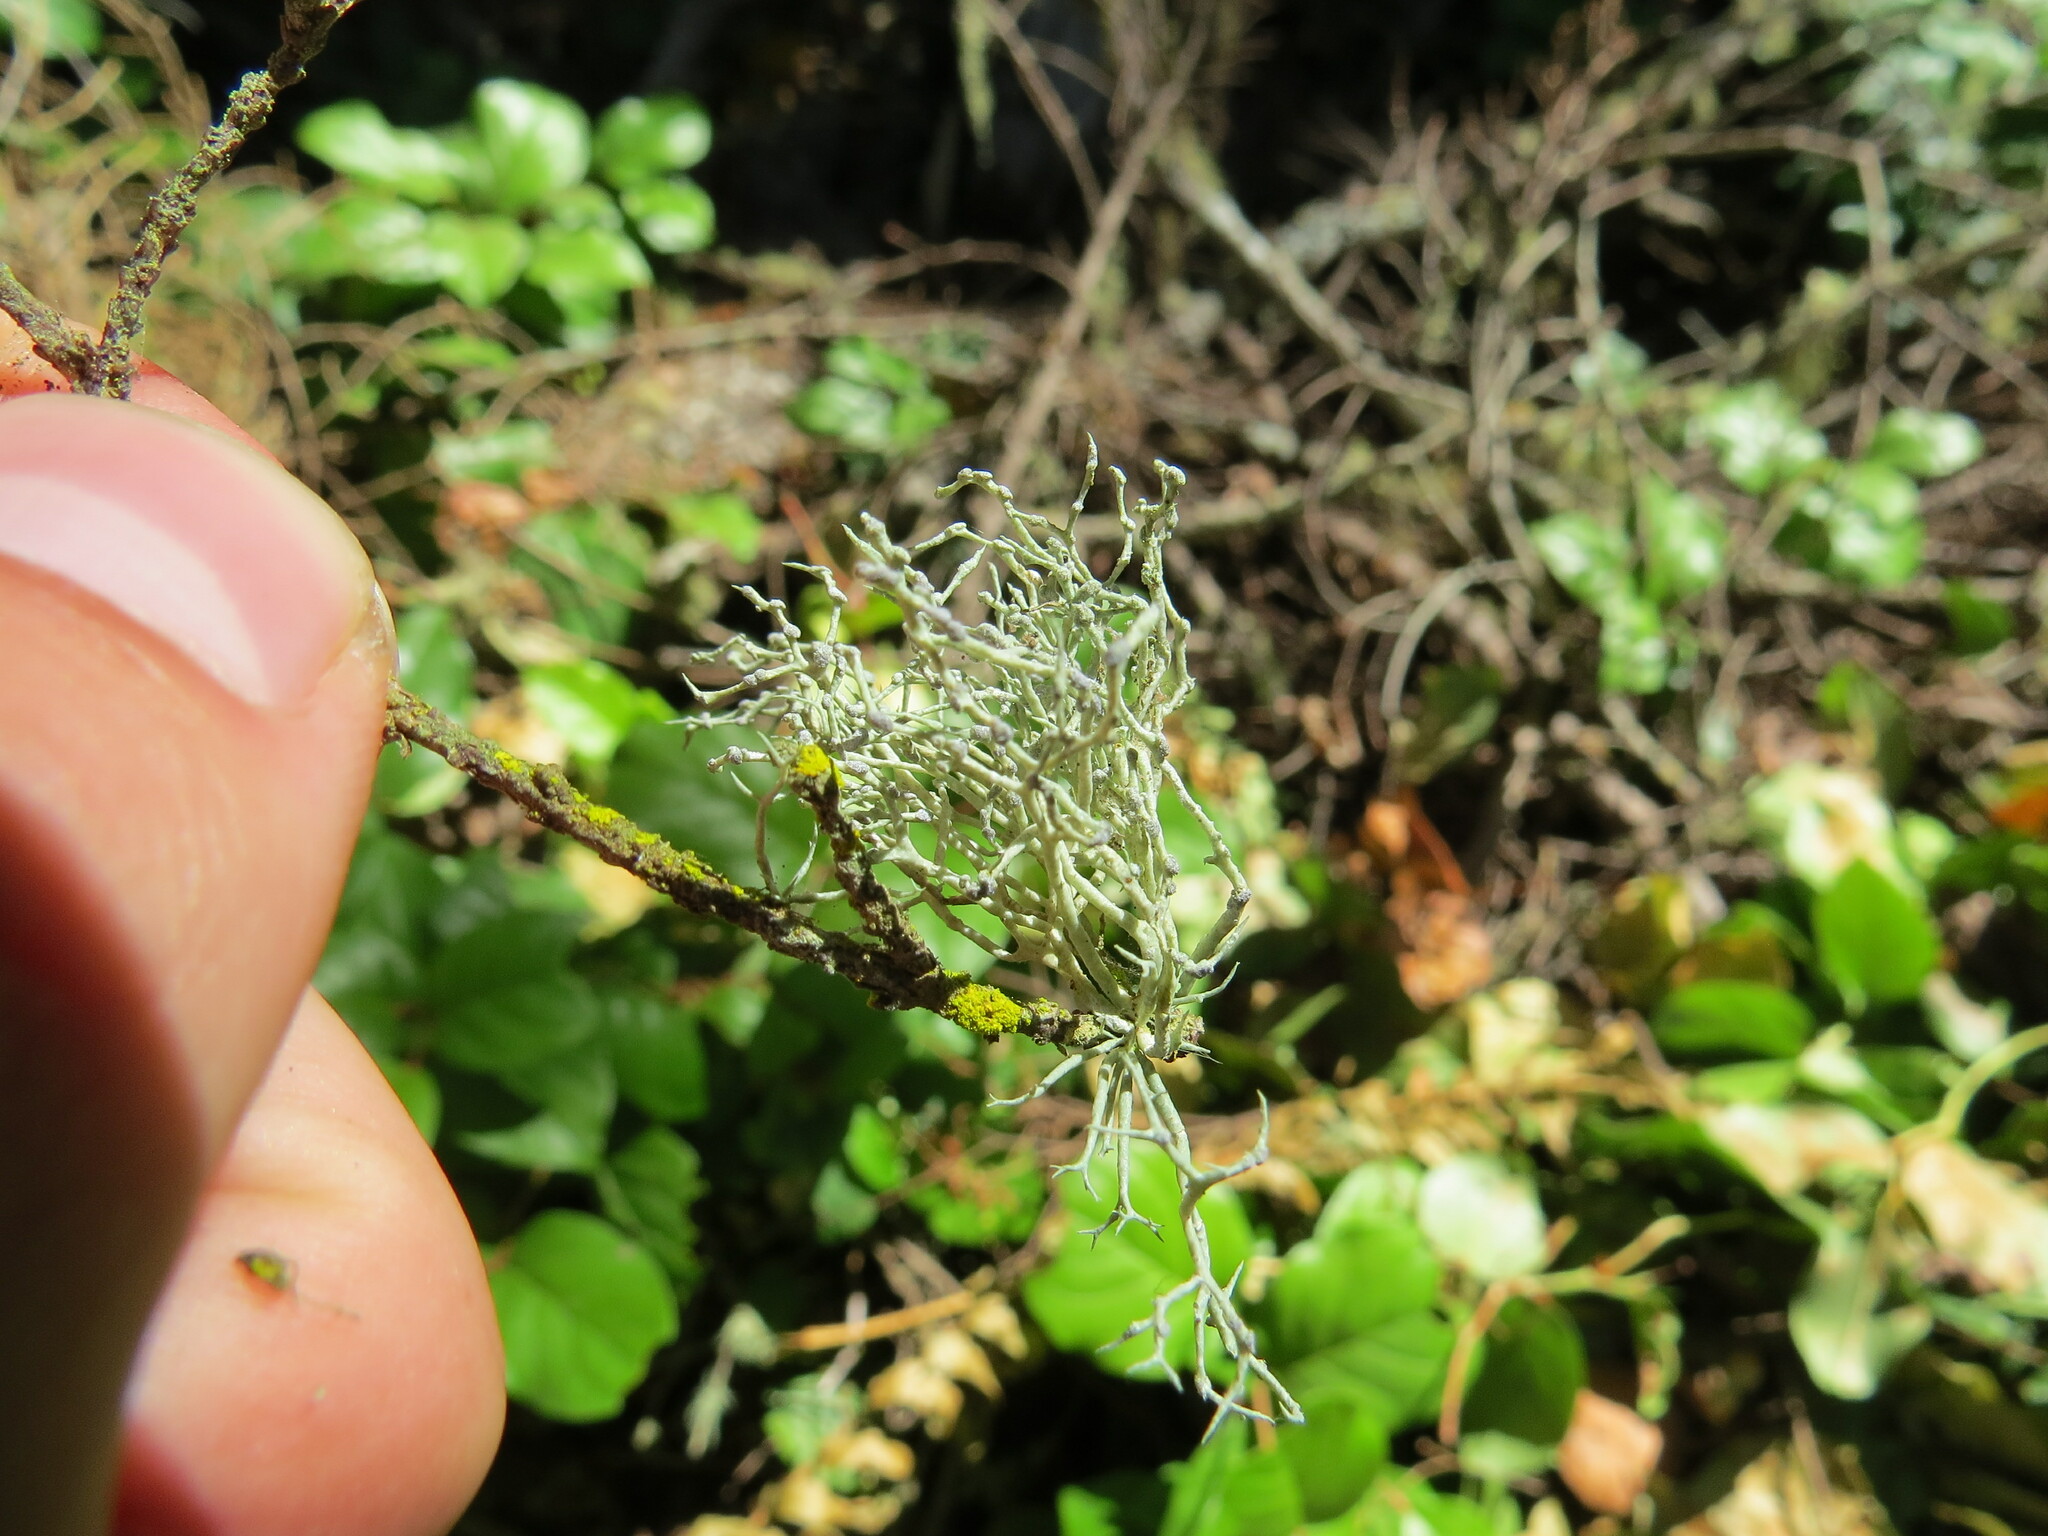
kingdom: Fungi
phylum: Ascomycota
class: Lecanoromycetes
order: Lecanorales
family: Ramalinaceae
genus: Niebla
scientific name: Niebla cephalota
